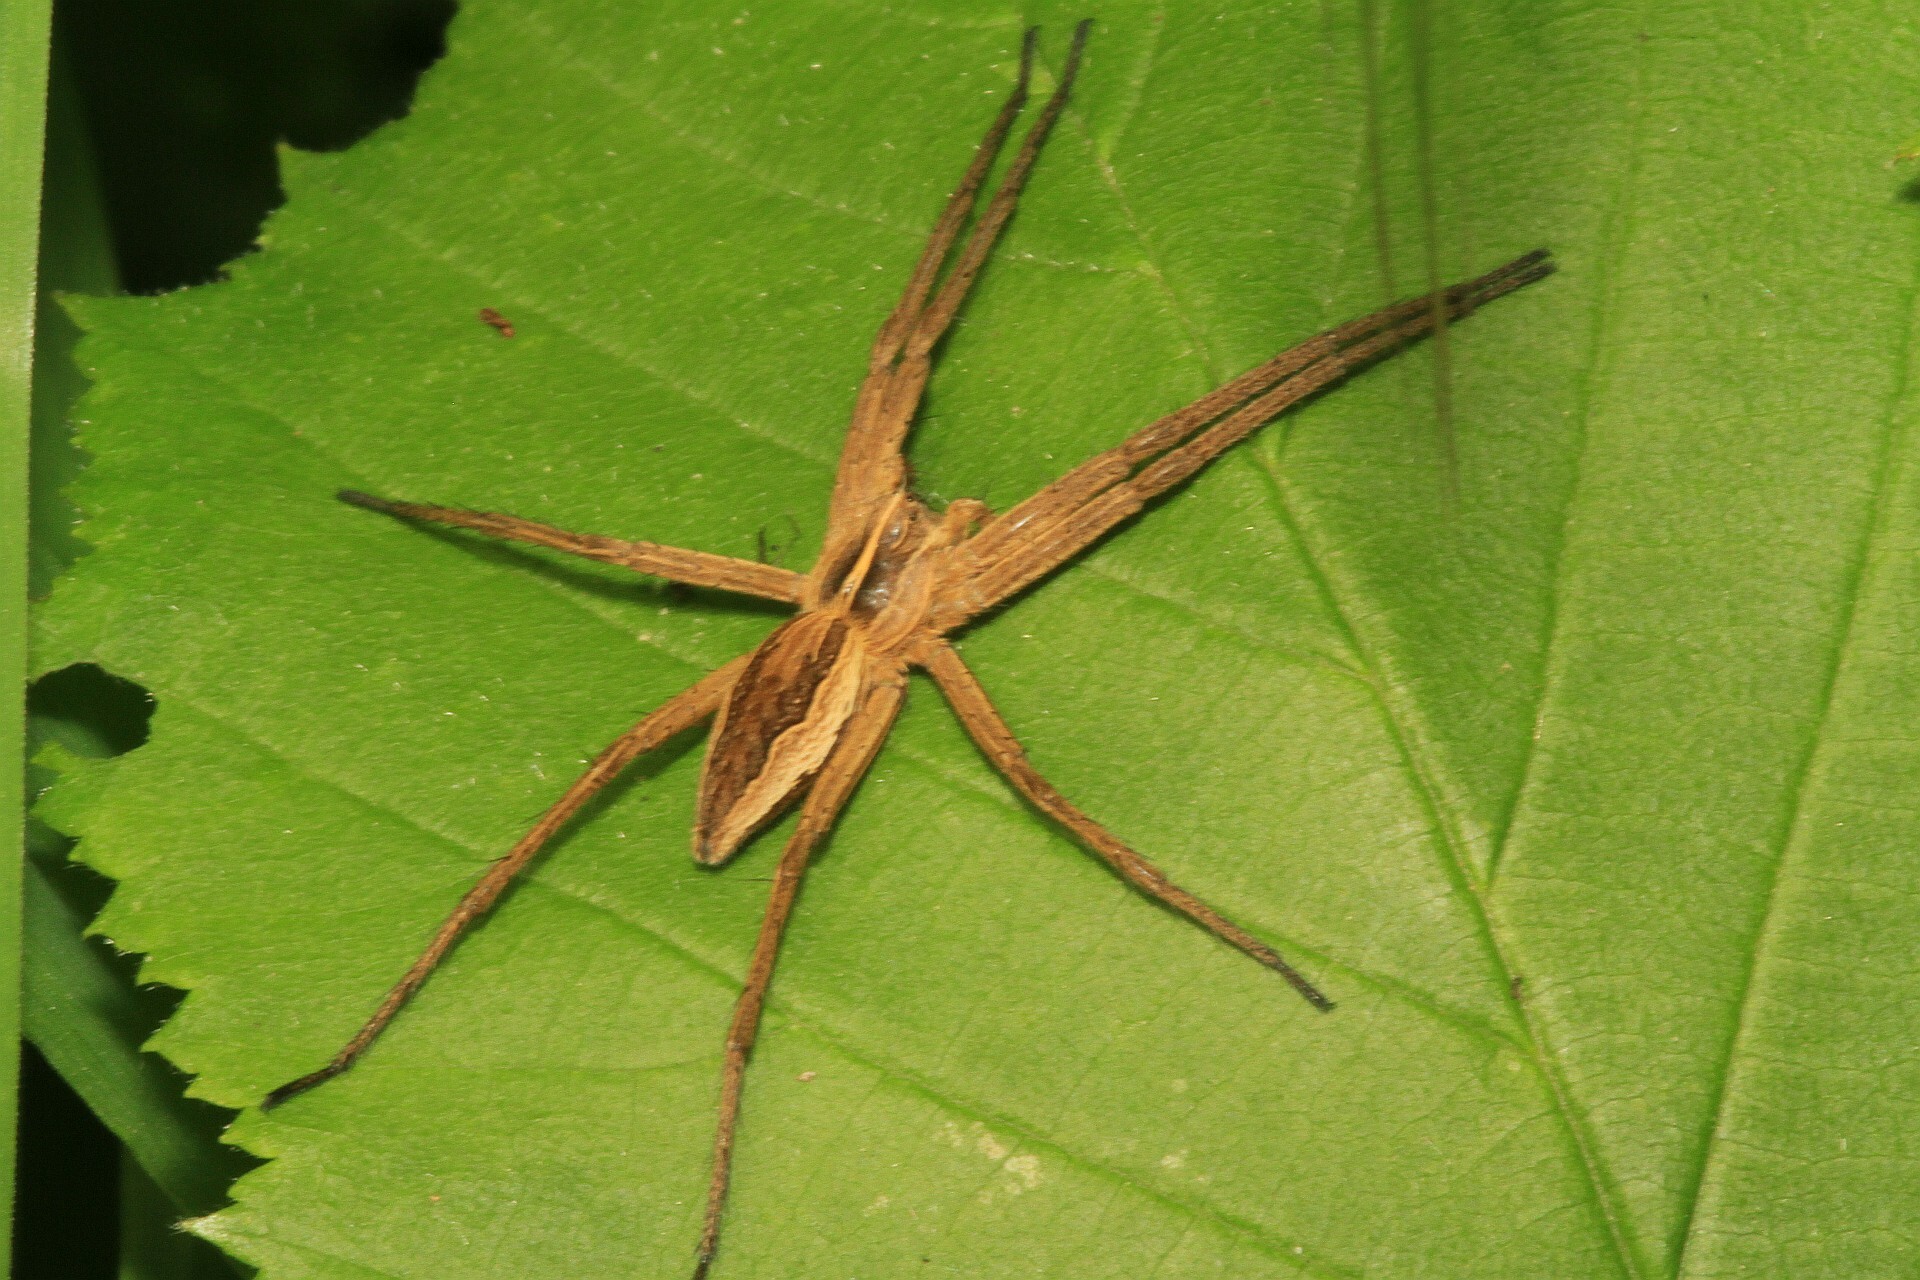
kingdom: Animalia
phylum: Arthropoda
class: Arachnida
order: Araneae
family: Pisauridae
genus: Pisaura
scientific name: Pisaura mirabilis
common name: Tent spider
